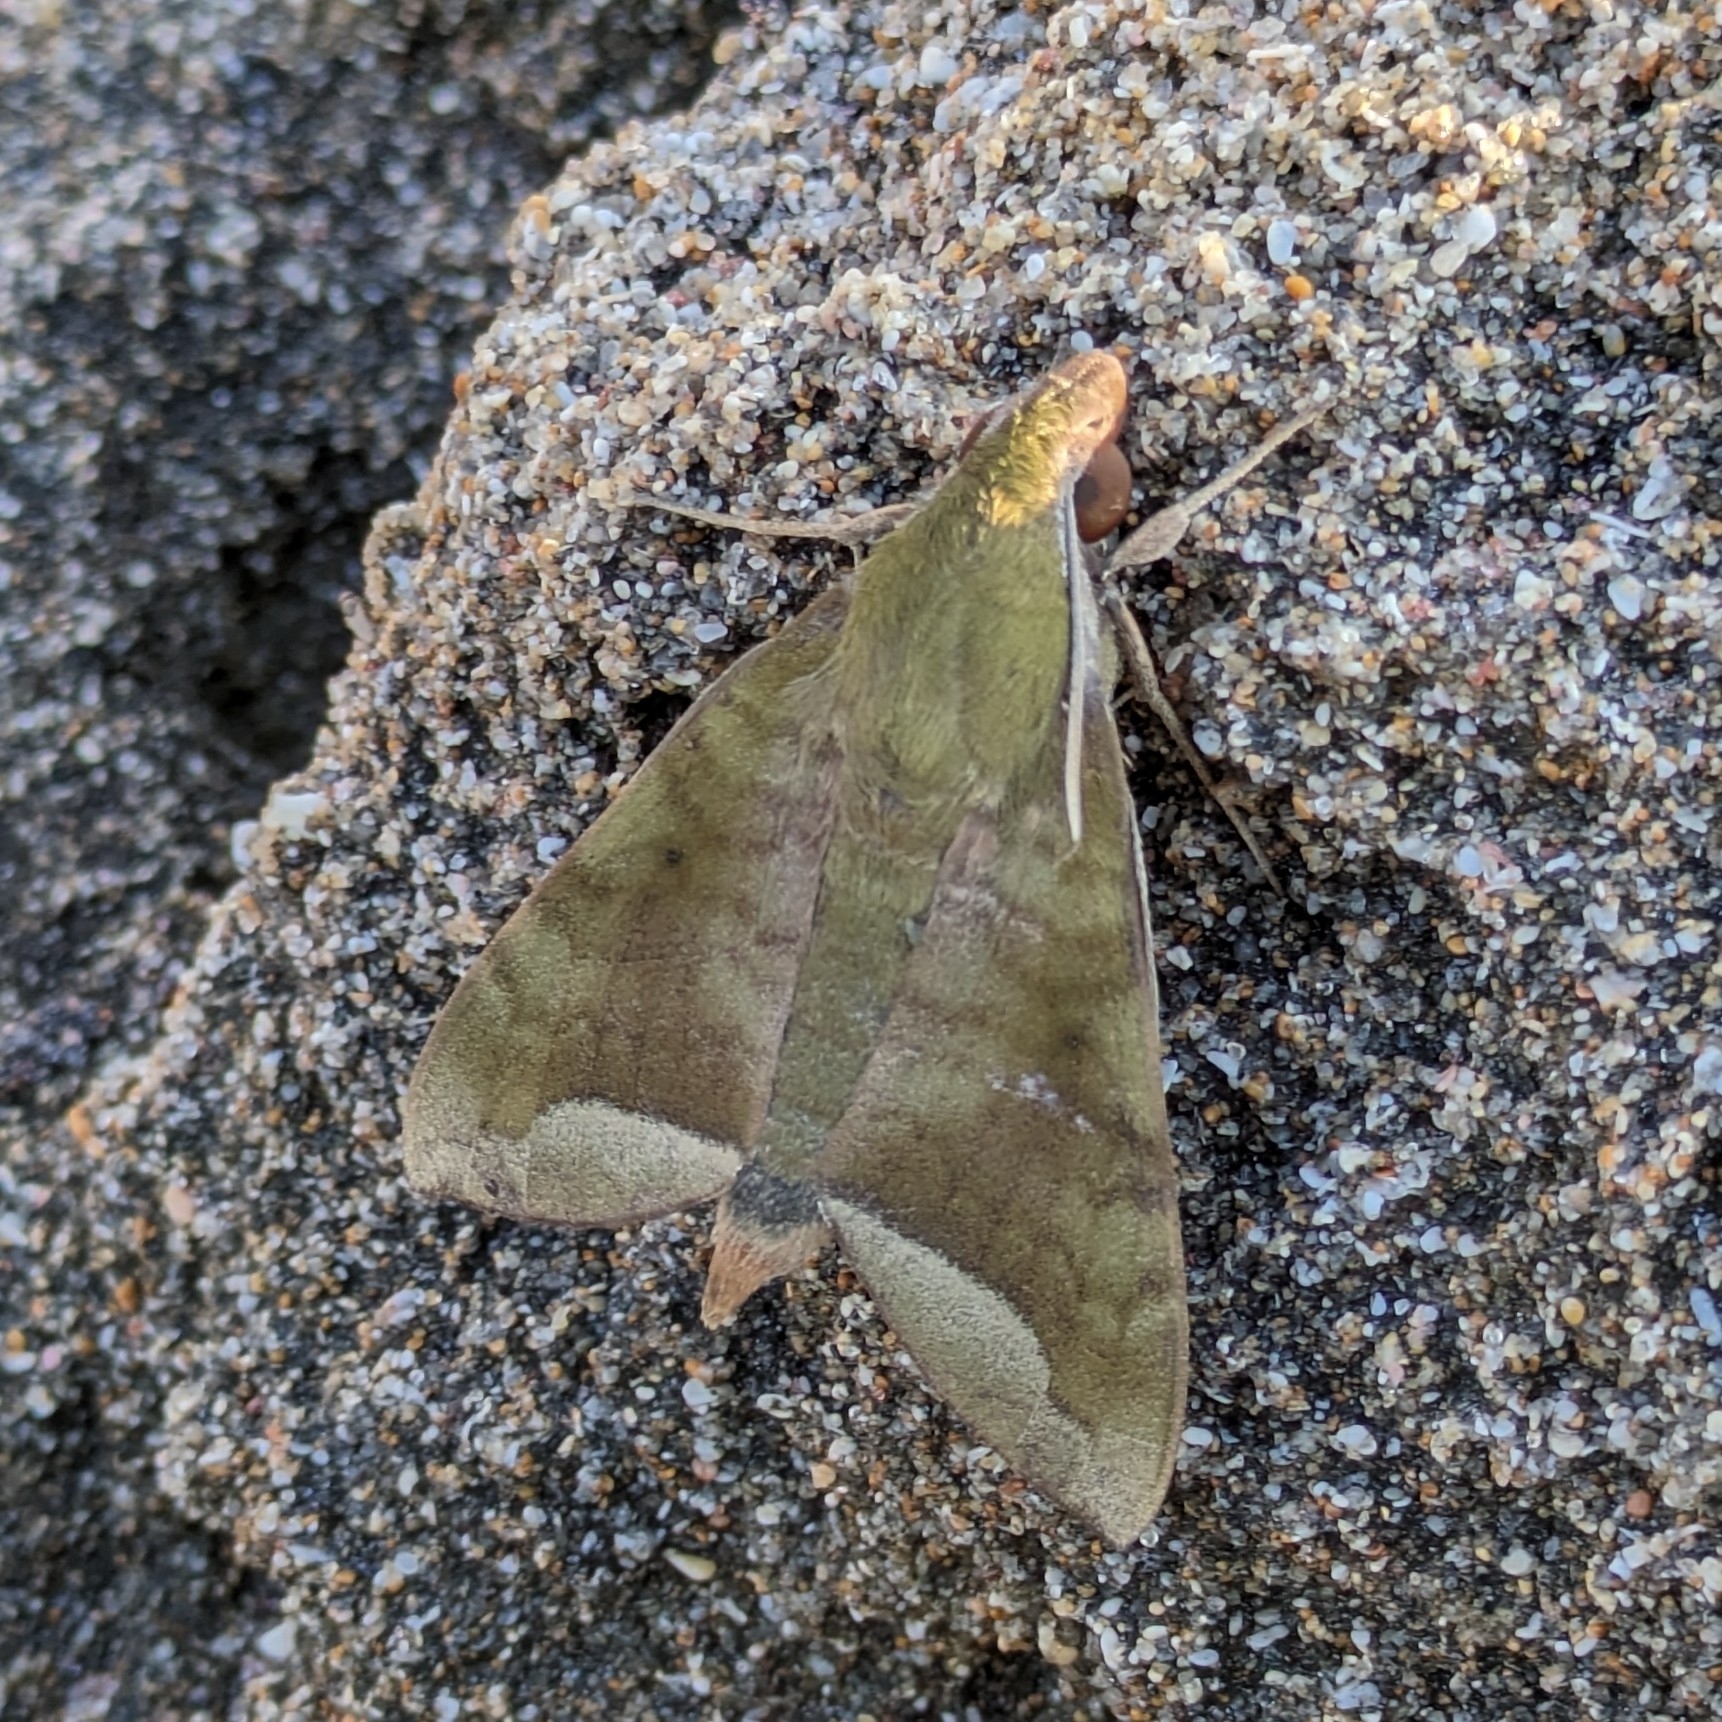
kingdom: Animalia
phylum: Arthropoda
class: Insecta
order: Lepidoptera
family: Sphingidae
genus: Nephele
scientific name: Nephele hespera
